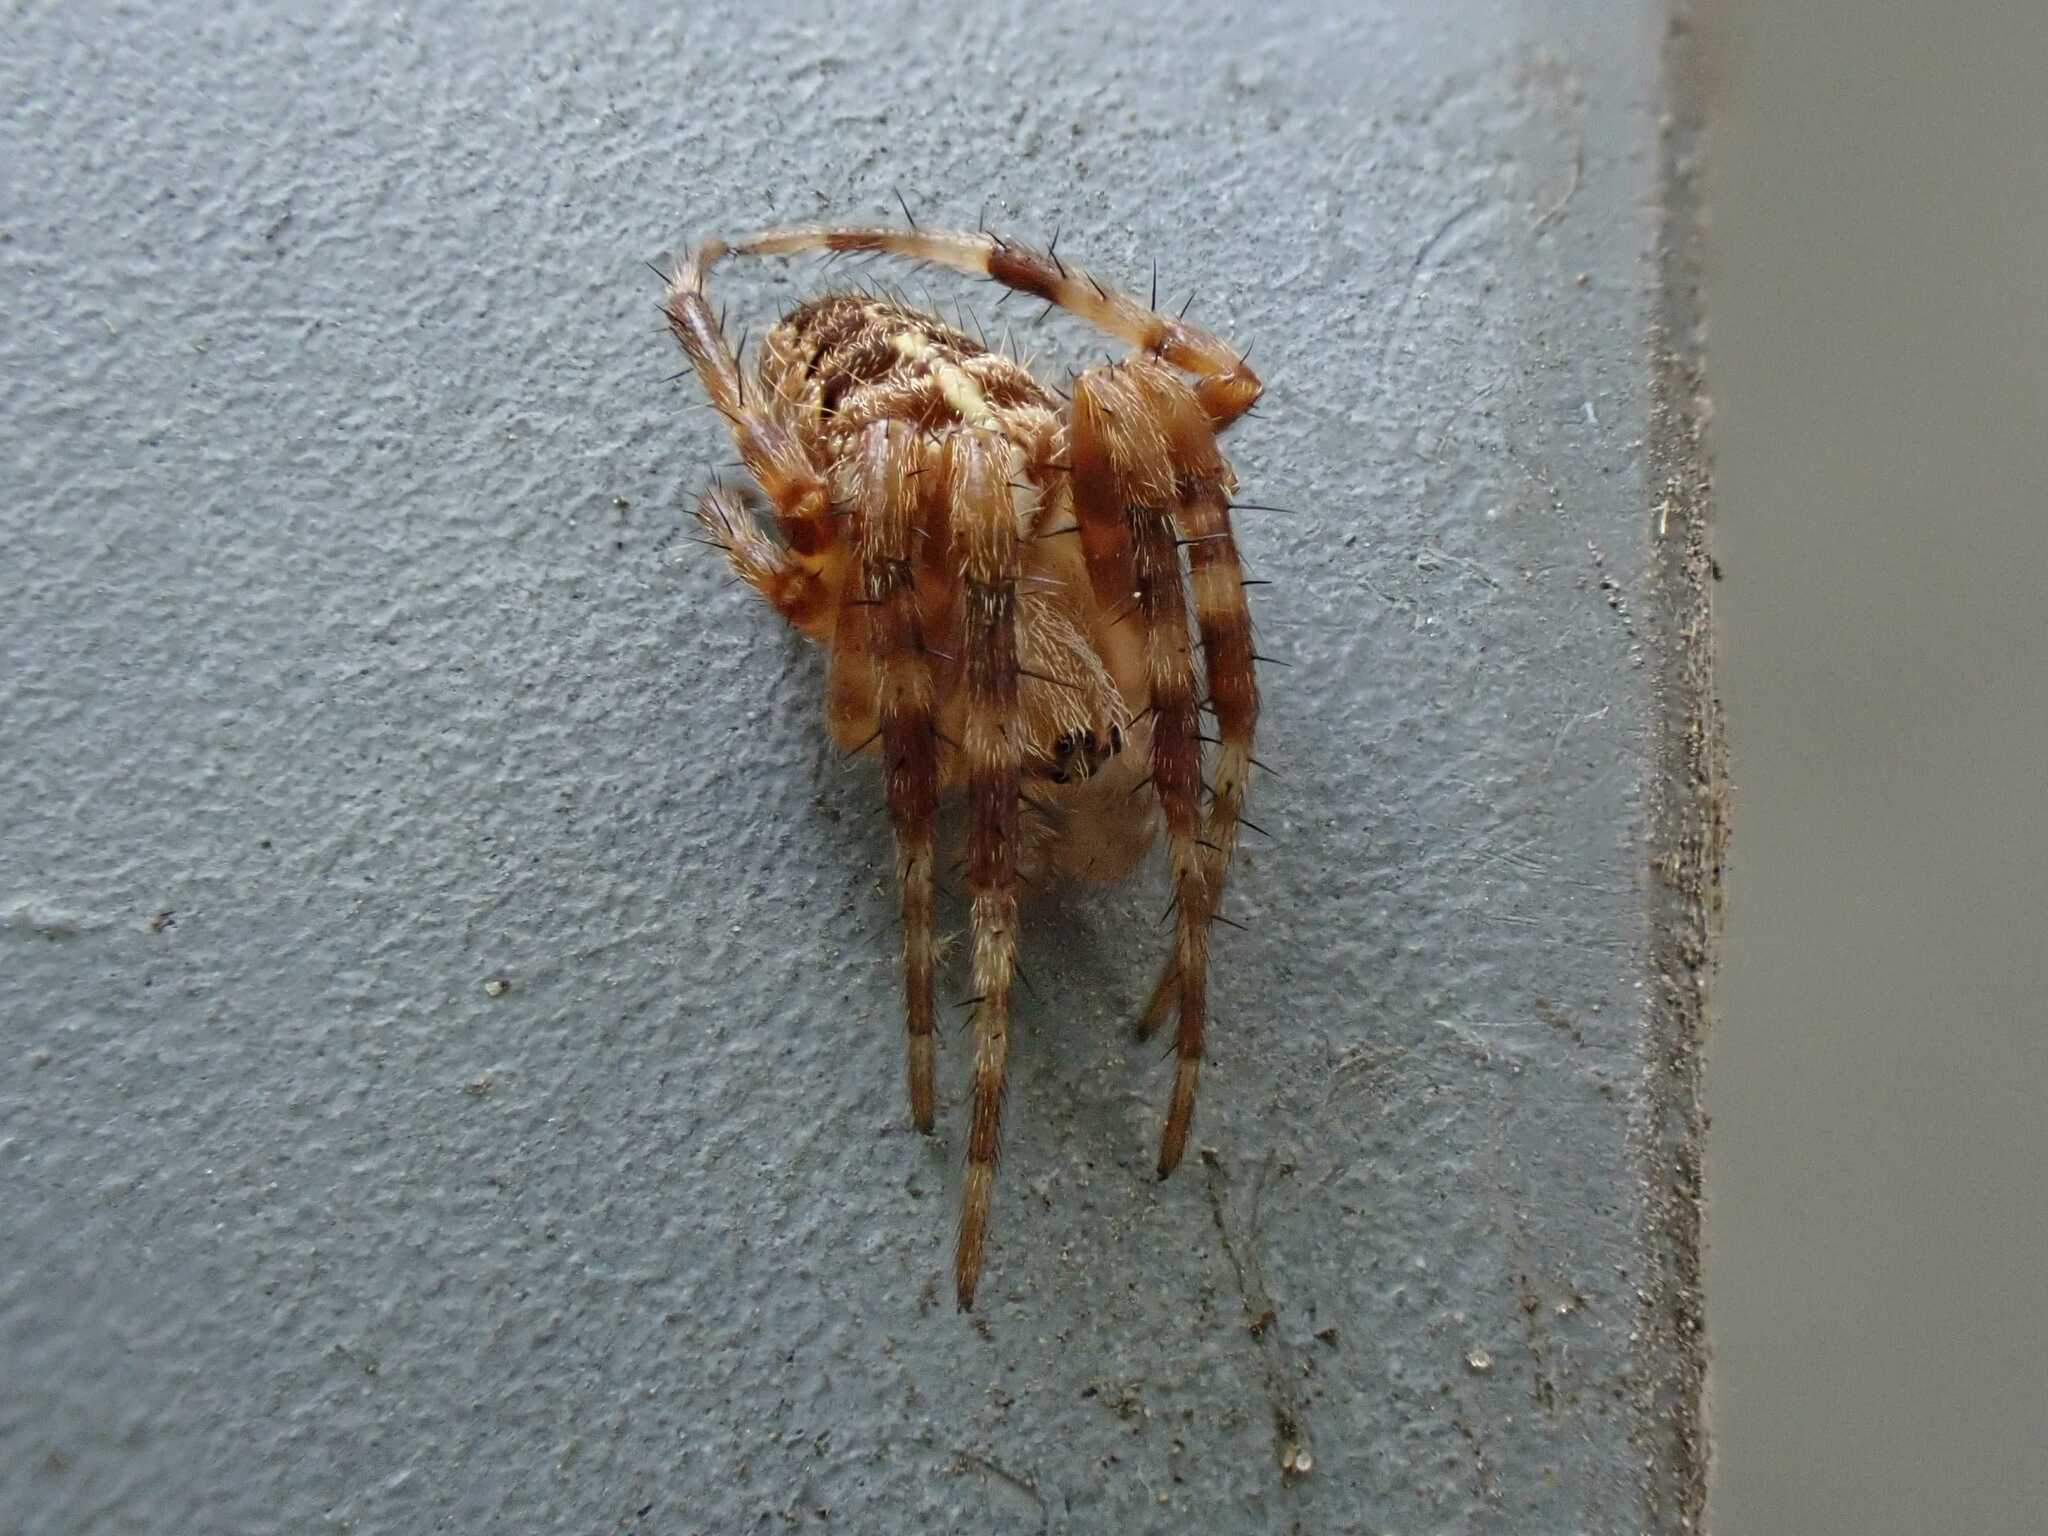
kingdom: Animalia
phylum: Arthropoda
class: Arachnida
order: Araneae
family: Araneidae
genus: Araneus
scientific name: Araneus diadematus
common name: Cross orbweaver
